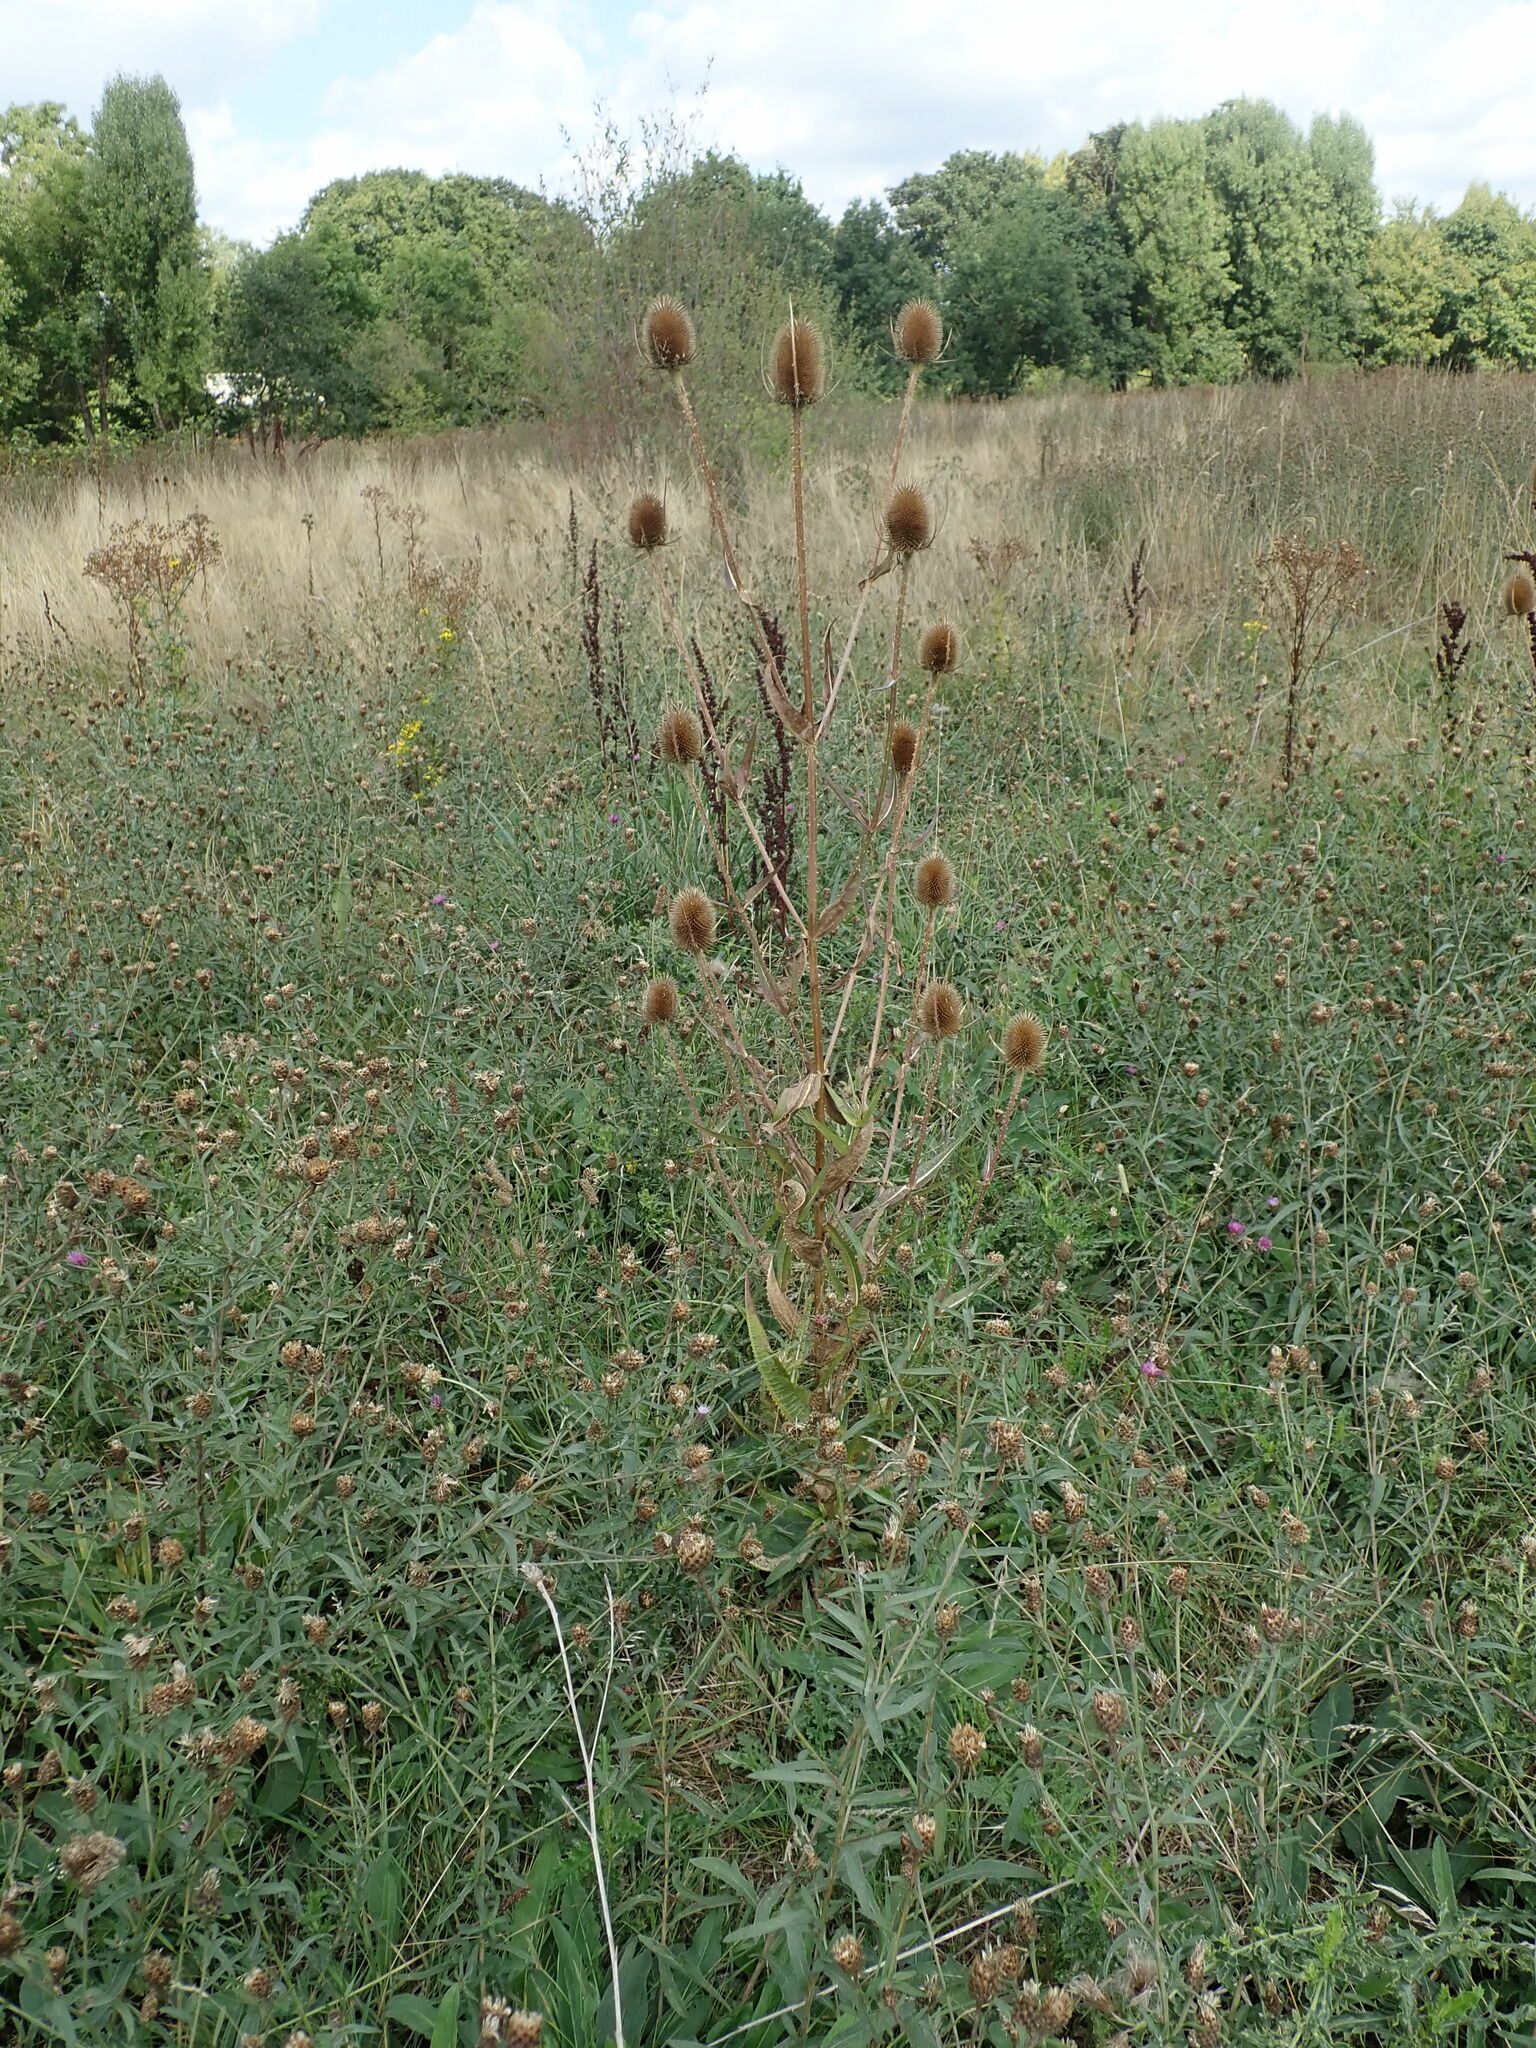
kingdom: Plantae
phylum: Tracheophyta
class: Magnoliopsida
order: Dipsacales
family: Caprifoliaceae
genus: Dipsacus
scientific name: Dipsacus fullonum
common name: Teasel
